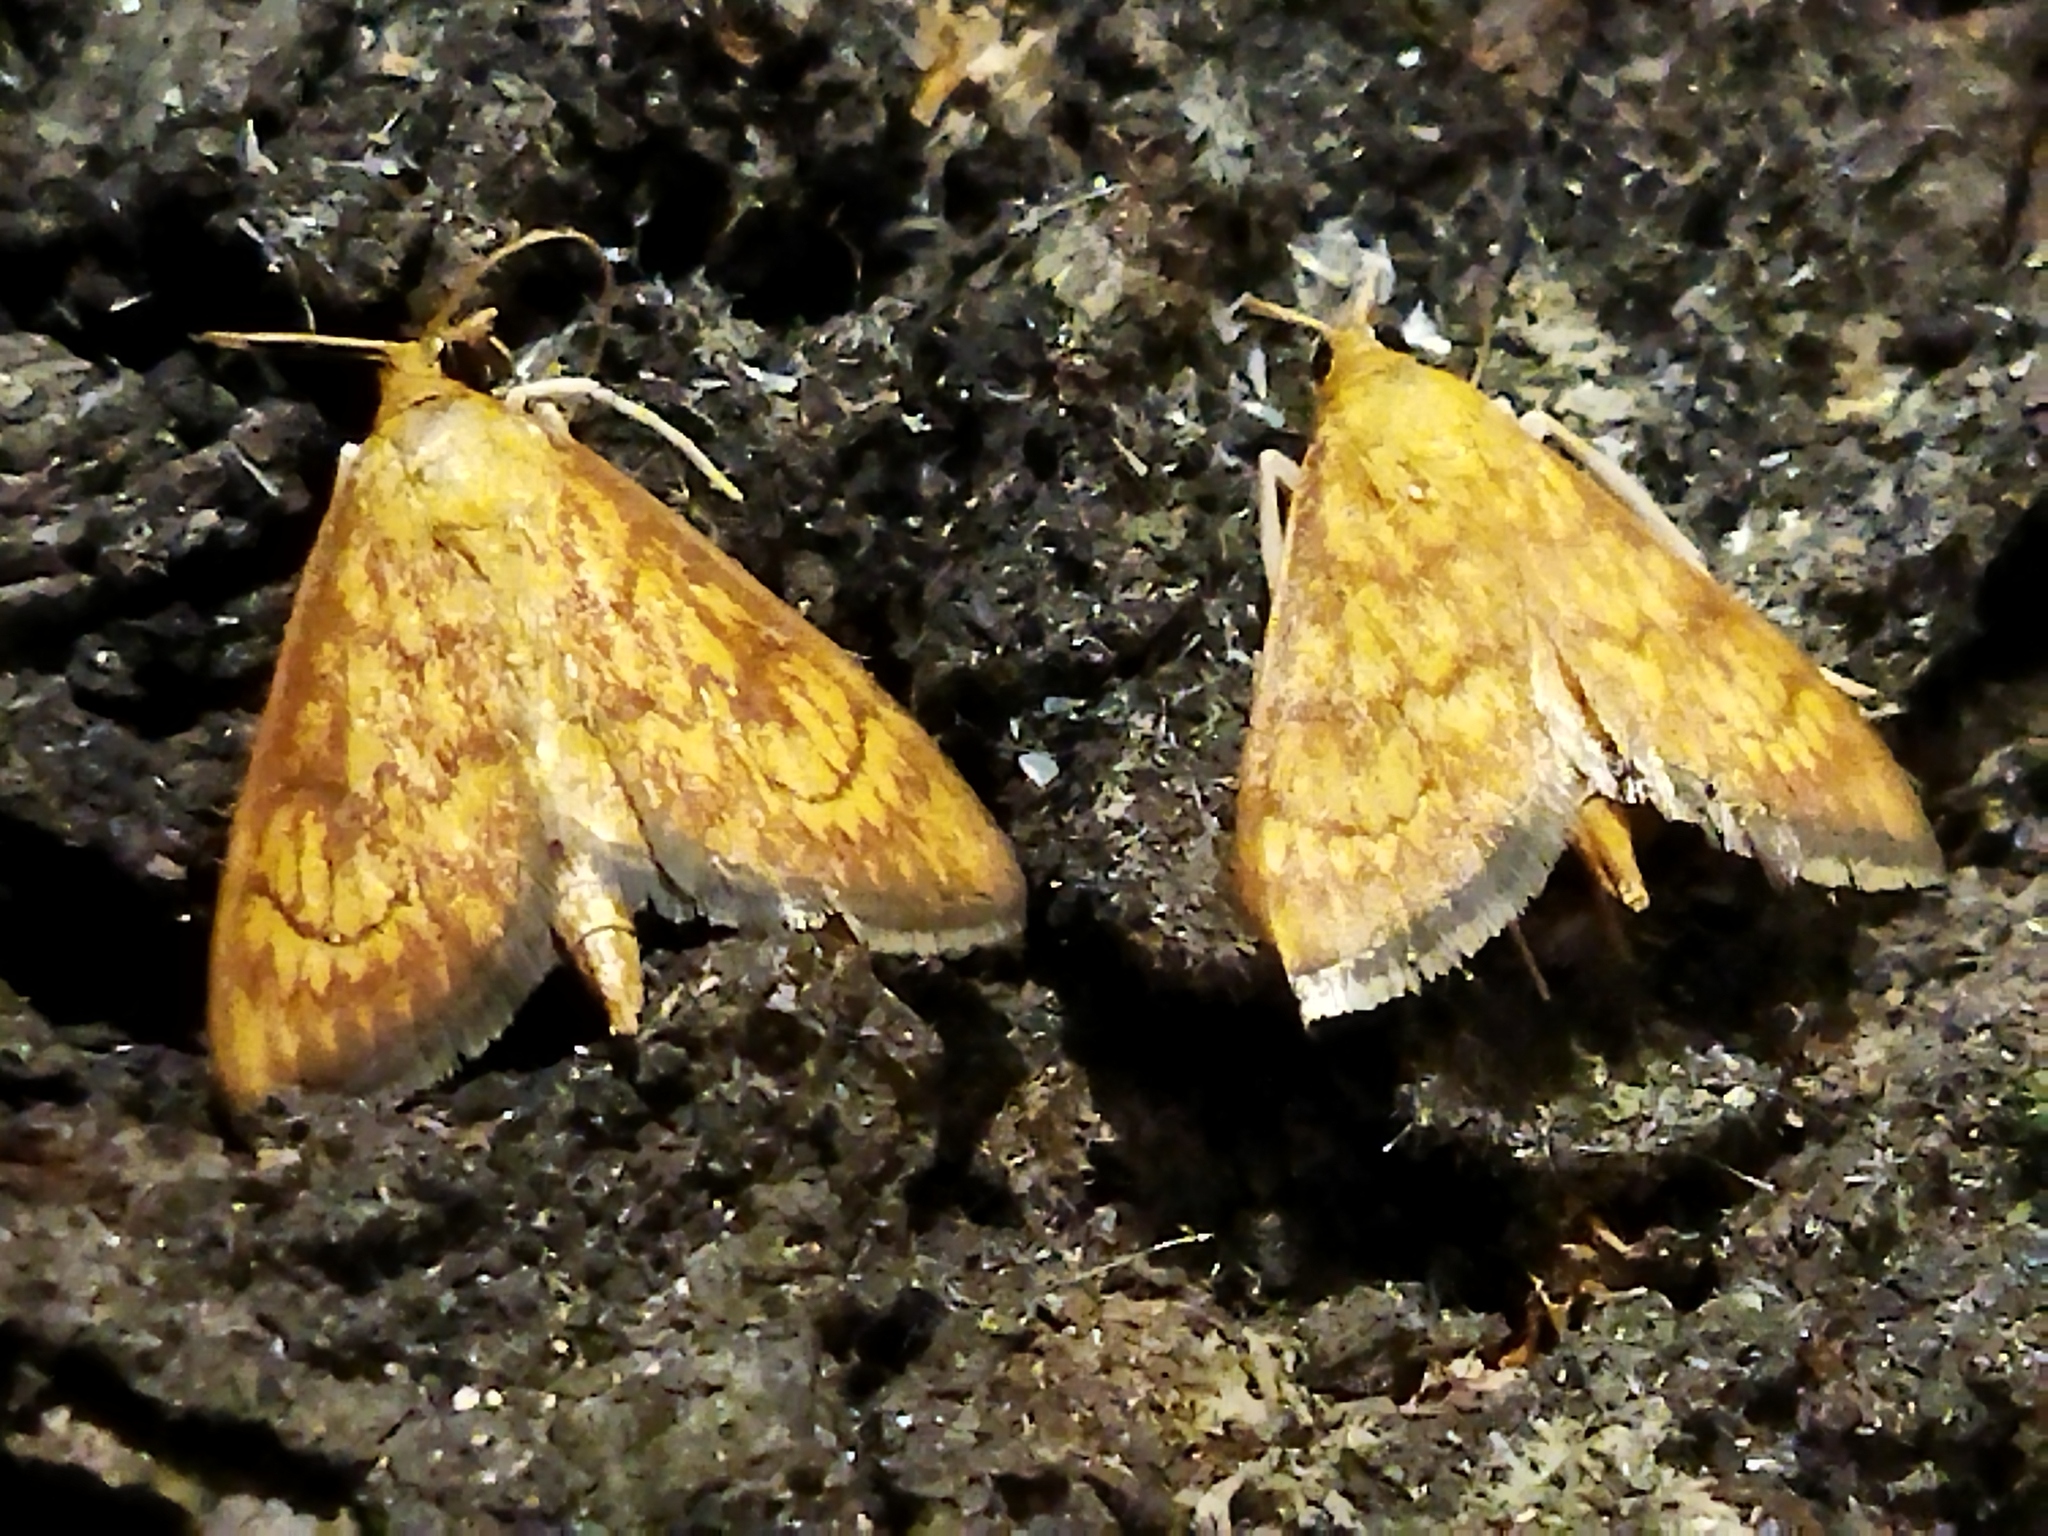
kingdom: Animalia
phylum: Arthropoda
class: Insecta
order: Lepidoptera
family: Crambidae
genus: Ecpyrrhorrhoe
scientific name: Ecpyrrhorrhoe rubiginalis
